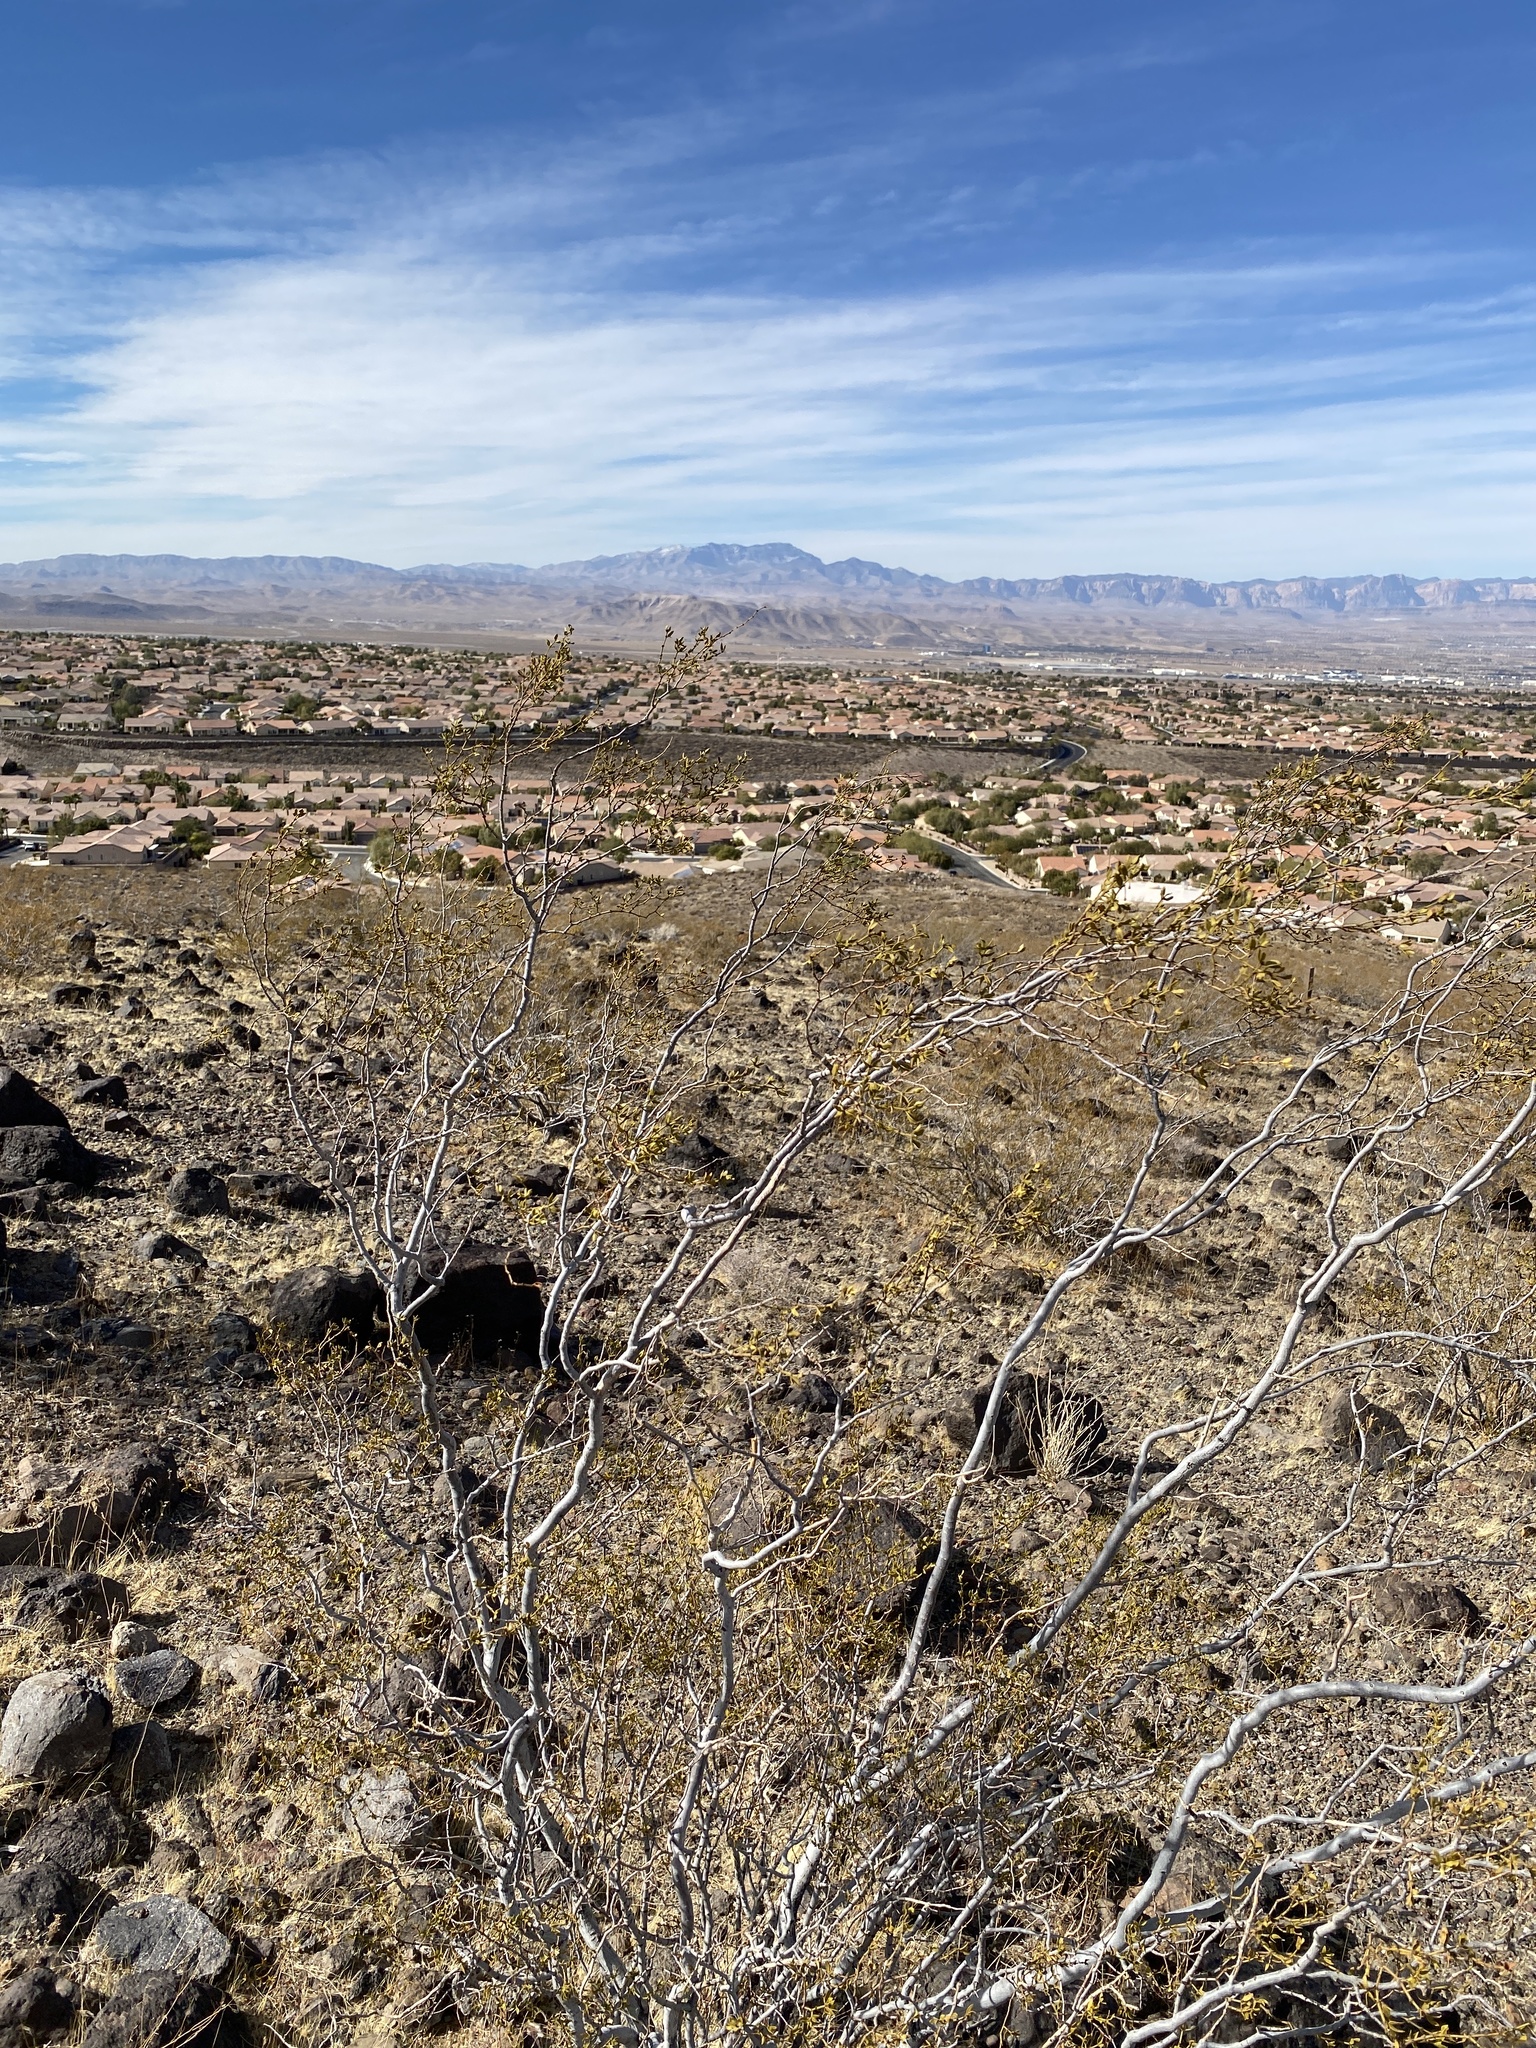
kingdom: Plantae
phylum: Tracheophyta
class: Magnoliopsida
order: Zygophyllales
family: Zygophyllaceae
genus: Larrea
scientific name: Larrea tridentata
